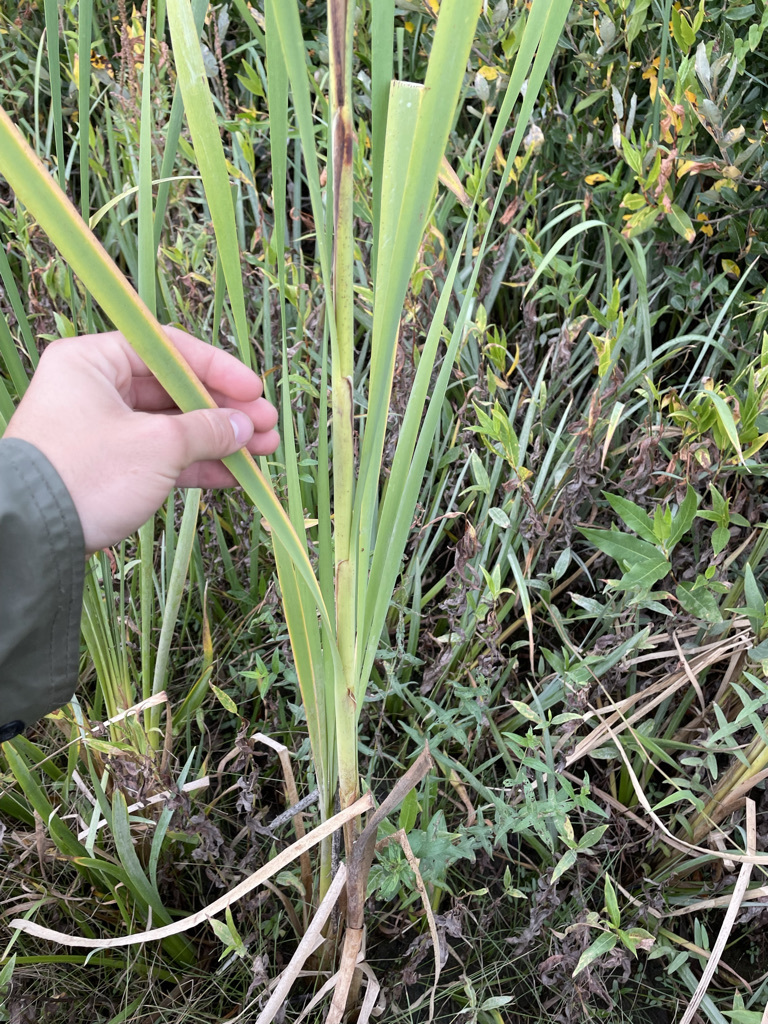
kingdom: Plantae
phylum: Tracheophyta
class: Liliopsida
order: Poales
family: Typhaceae
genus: Typha
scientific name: Typha latifolia
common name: Broadleaf cattail
